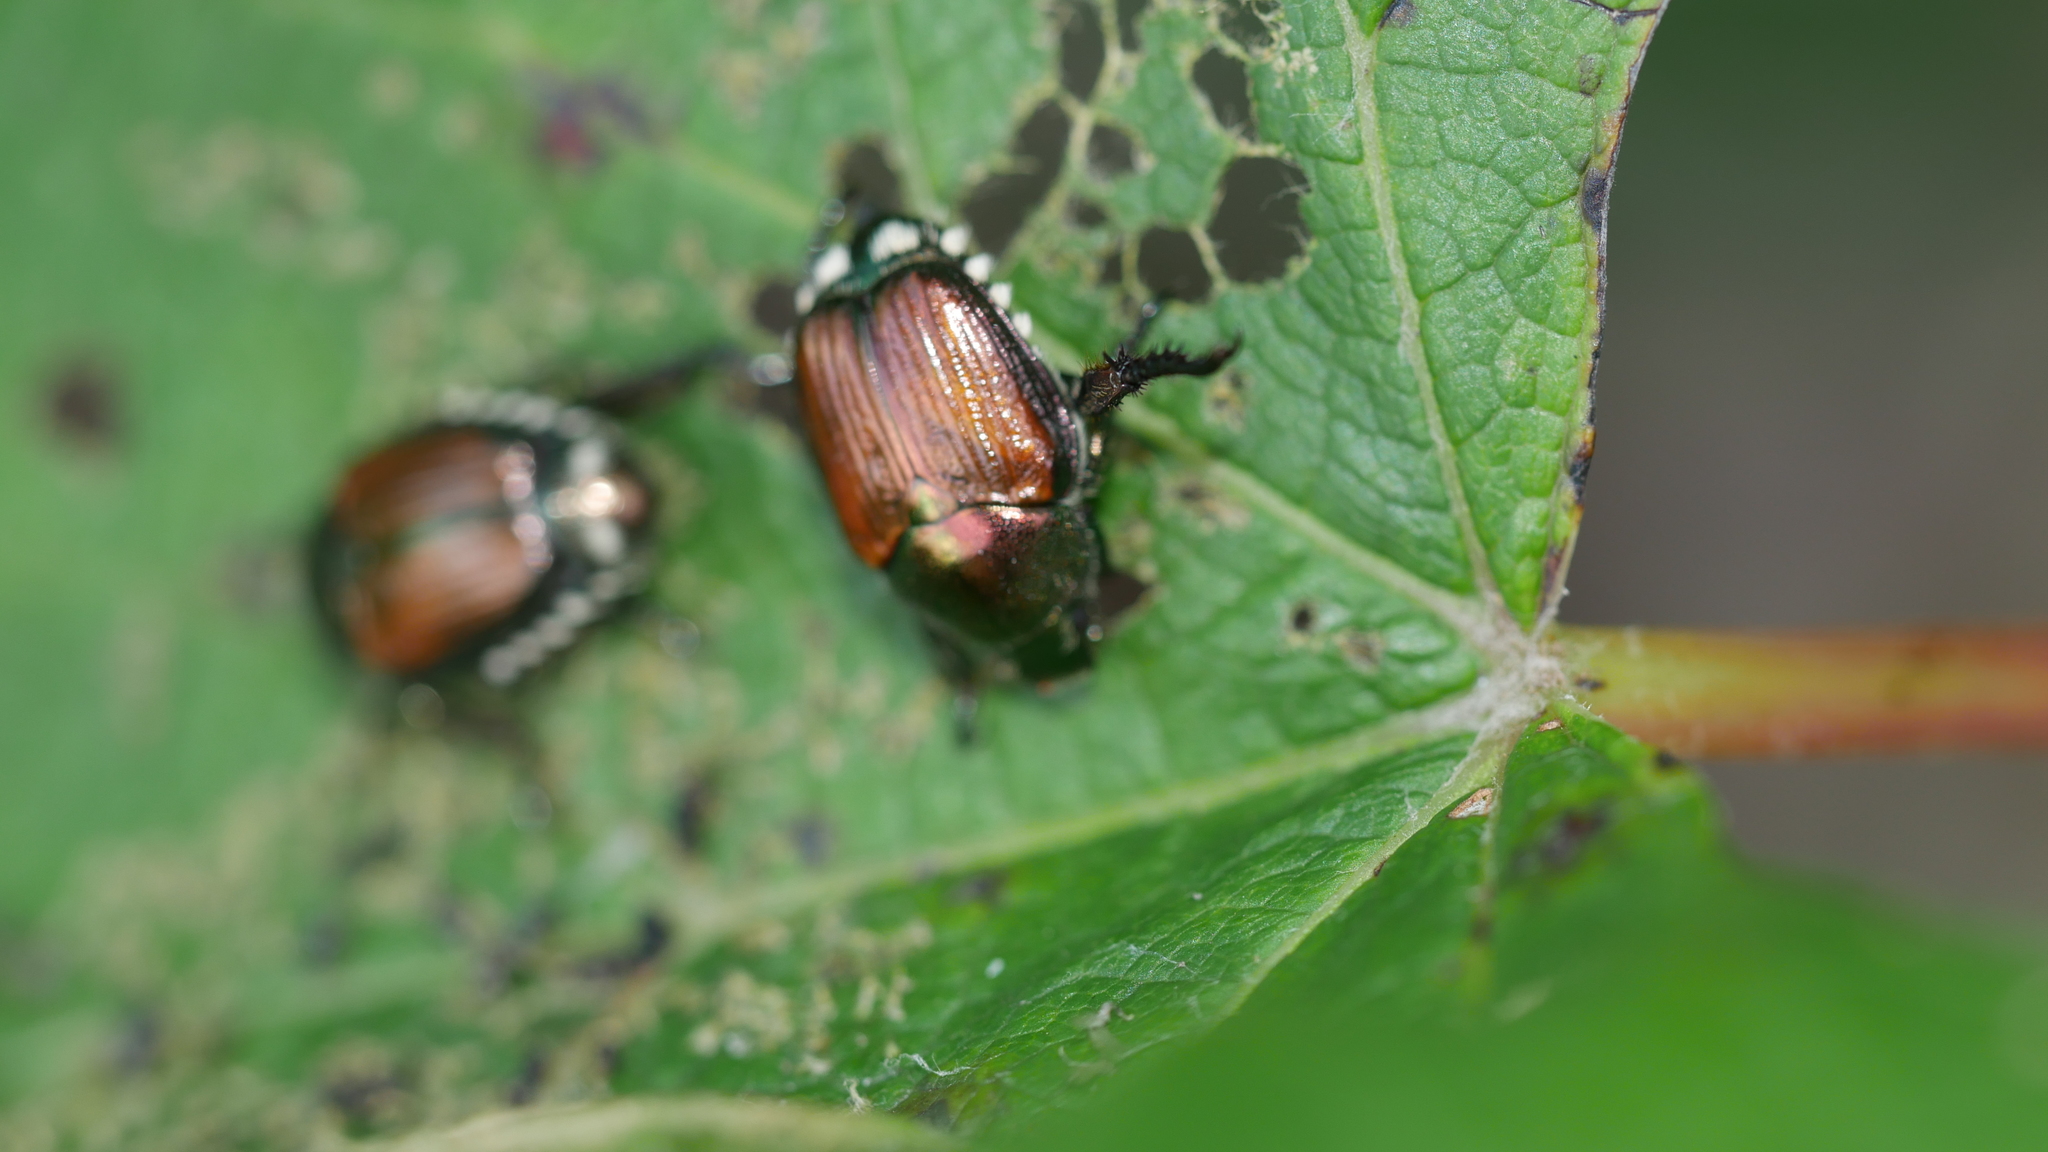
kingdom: Animalia
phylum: Arthropoda
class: Insecta
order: Coleoptera
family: Scarabaeidae
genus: Popillia
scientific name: Popillia japonica
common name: Japanese beetle
